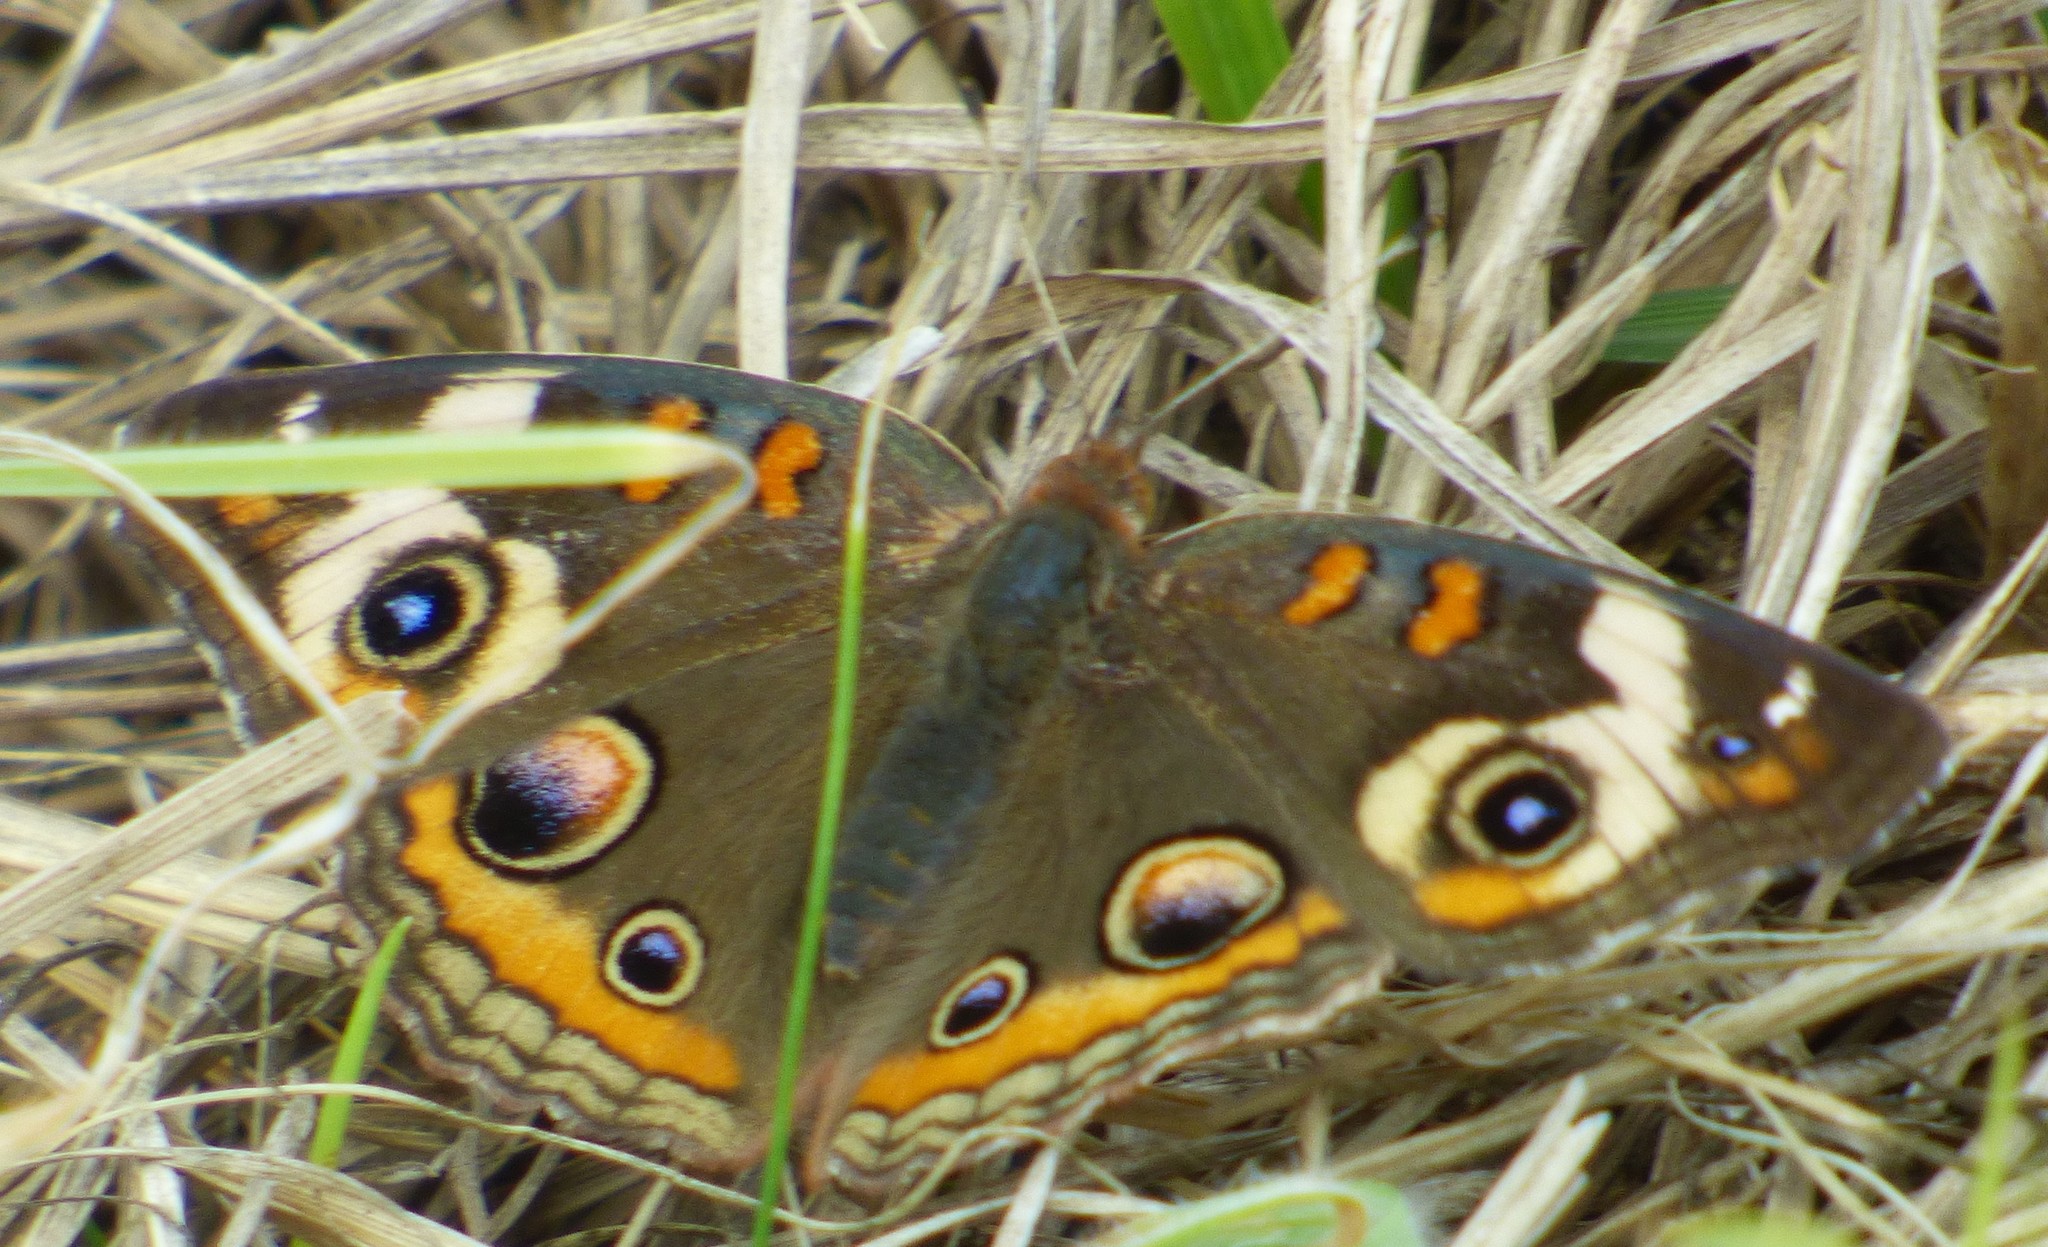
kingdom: Animalia
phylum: Arthropoda
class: Insecta
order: Lepidoptera
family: Nymphalidae
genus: Junonia
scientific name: Junonia coenia
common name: Common buckeye
